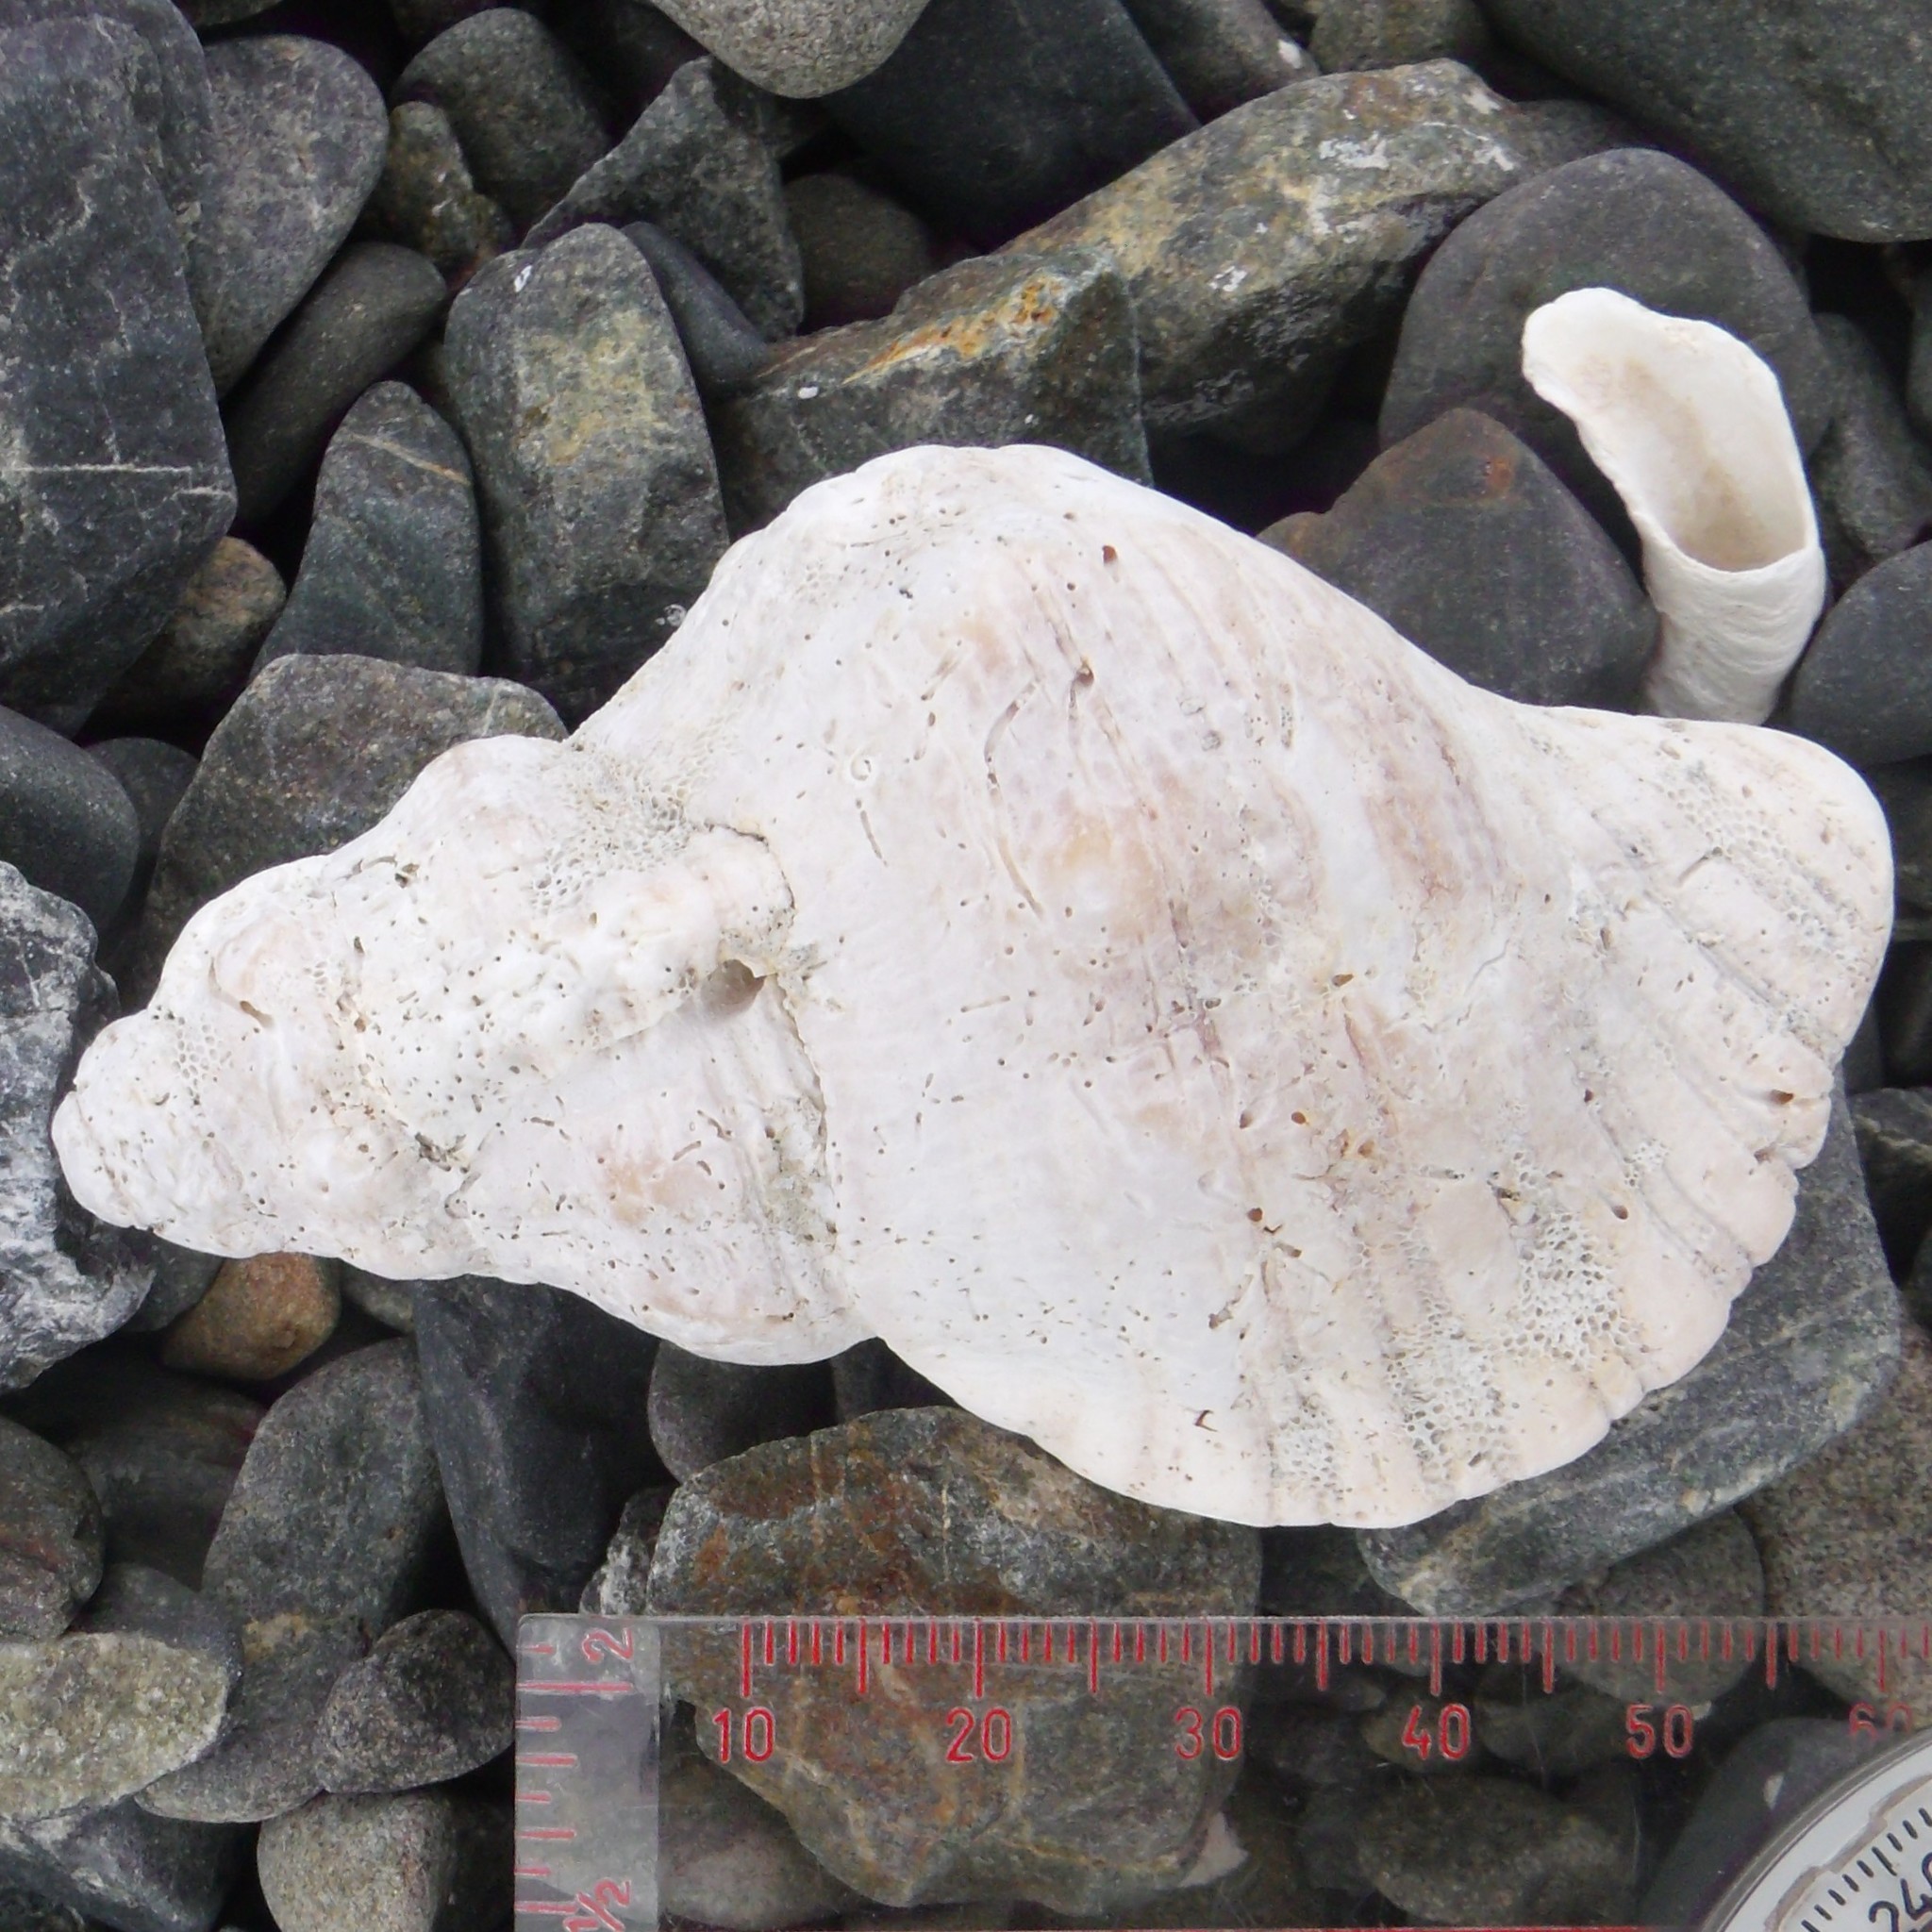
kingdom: Animalia
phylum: Mollusca
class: Gastropoda
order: Littorinimorpha
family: Cymatiidae
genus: Cabestana
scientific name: Cabestana spengleri
